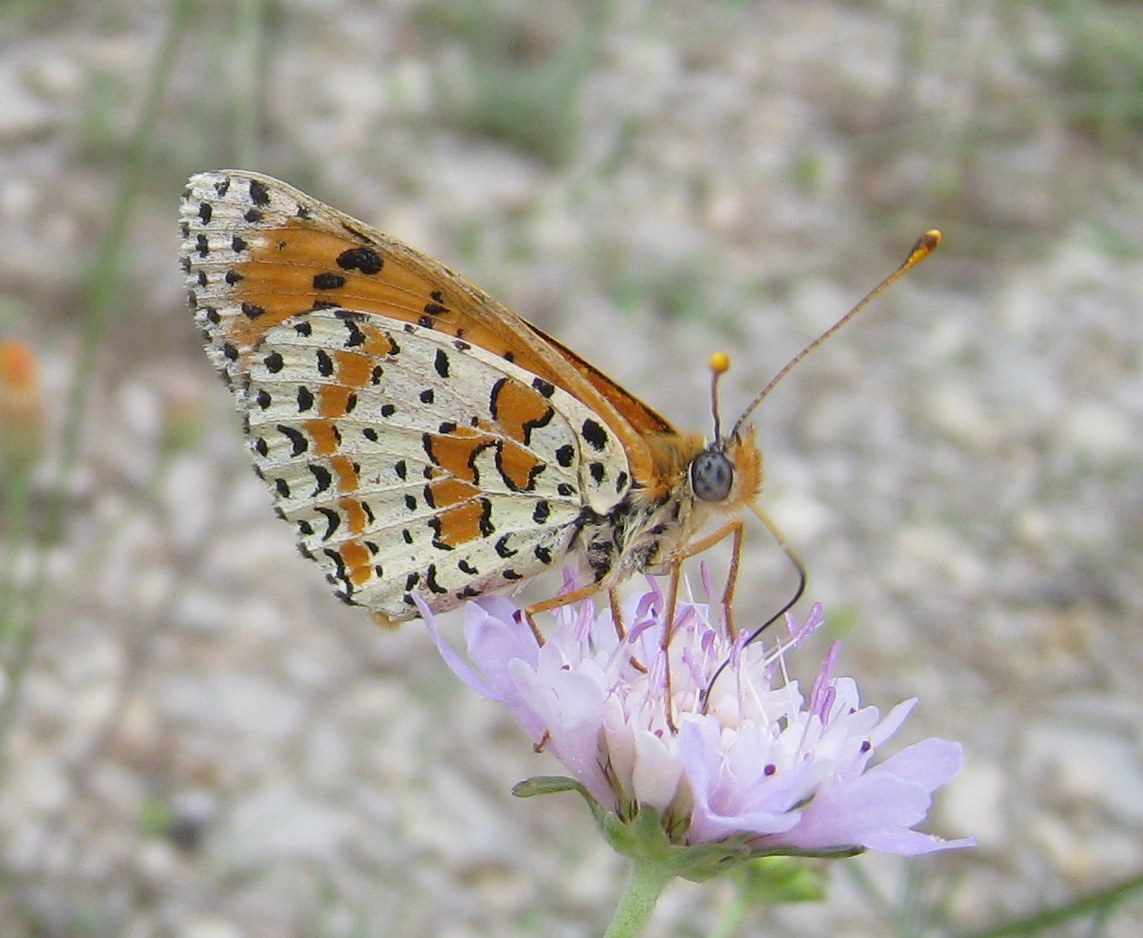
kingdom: Animalia
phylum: Arthropoda
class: Insecta
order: Lepidoptera
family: Nymphalidae
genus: Melitaea
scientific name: Melitaea didyma
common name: Spotted fritillary
